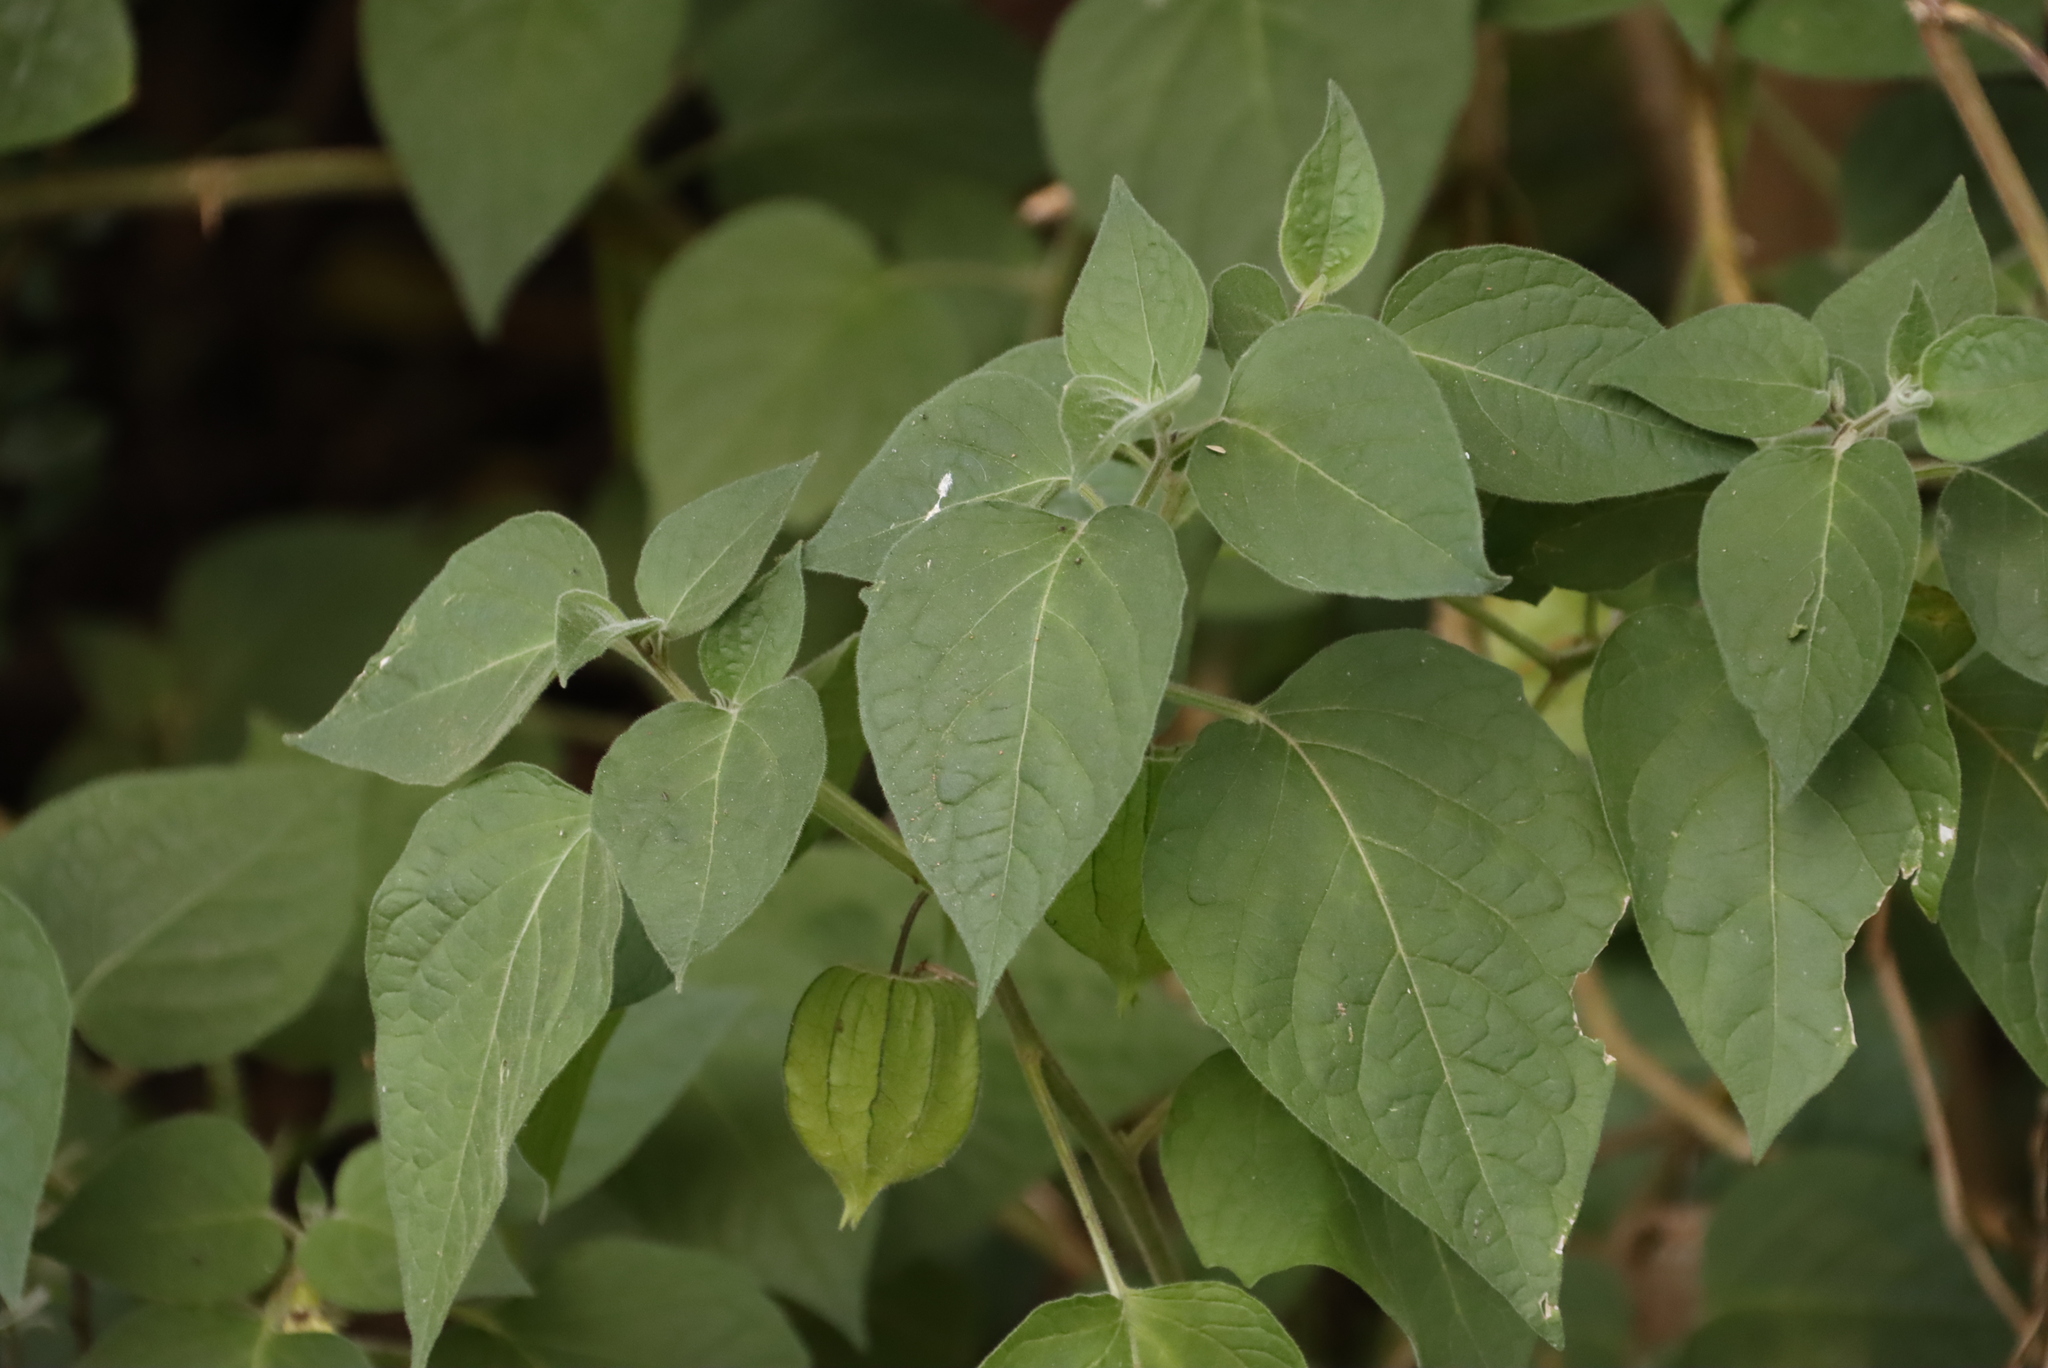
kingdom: Plantae
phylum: Tracheophyta
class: Magnoliopsida
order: Solanales
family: Solanaceae
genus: Physalis
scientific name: Physalis peruviana
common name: Cape-gooseberry
